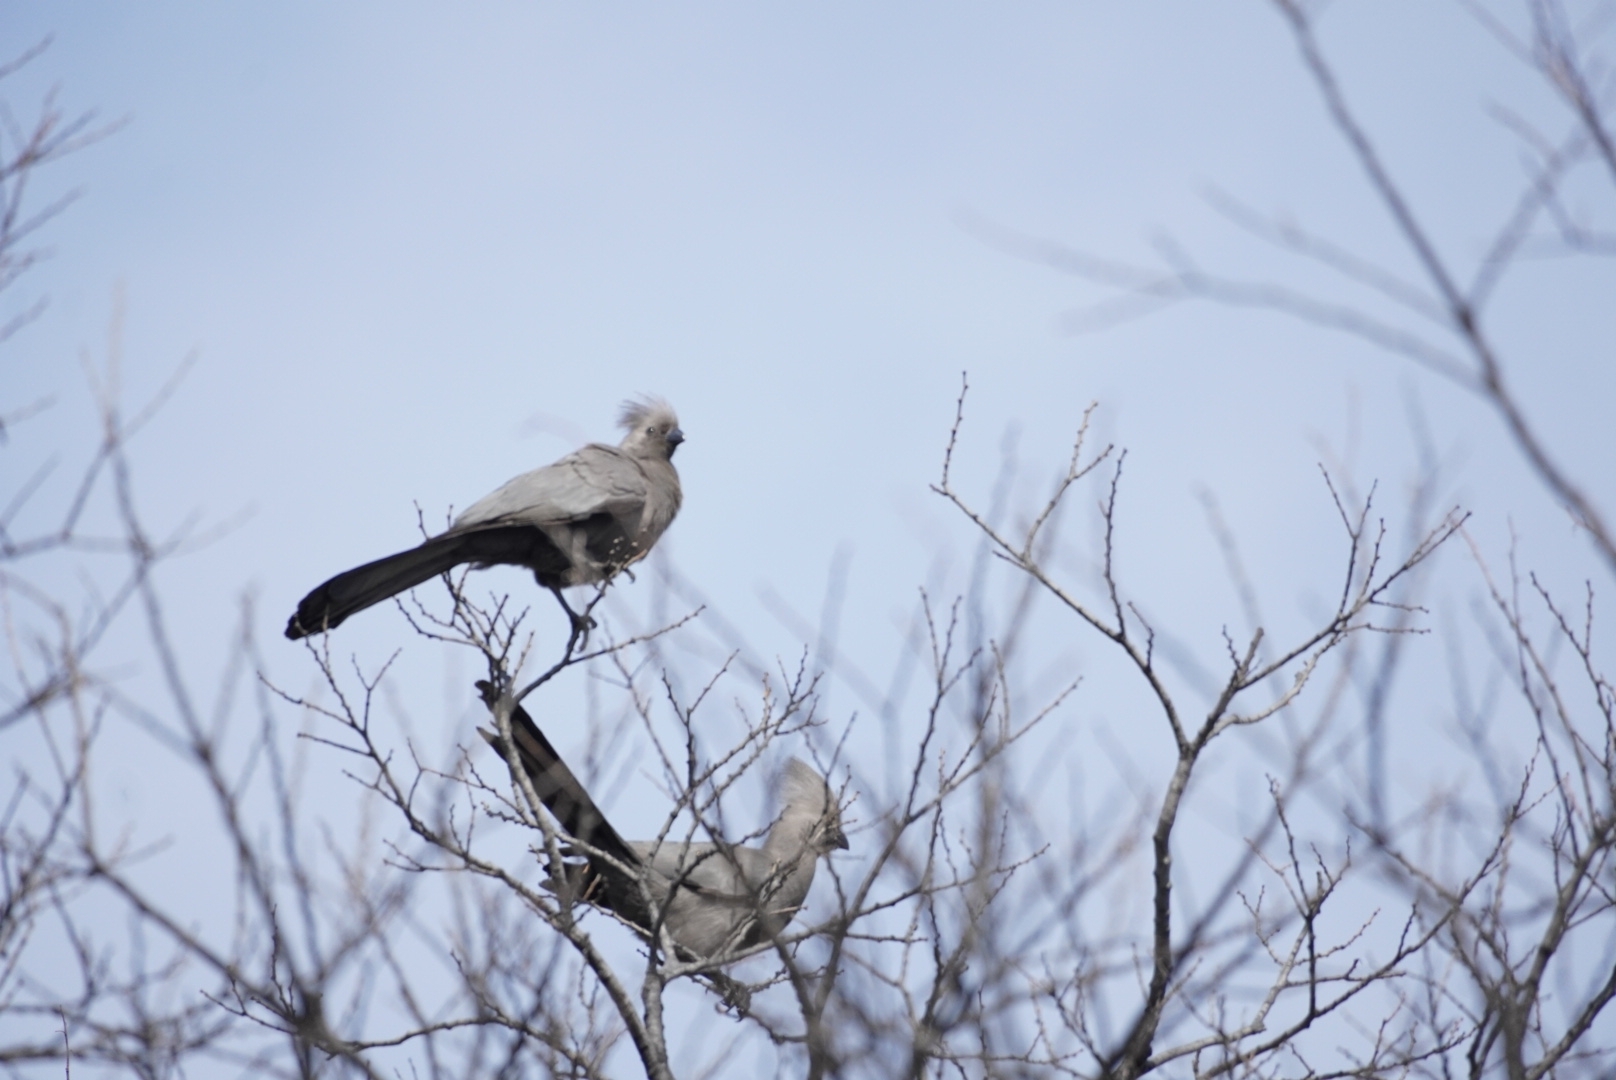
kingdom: Animalia
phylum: Chordata
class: Aves
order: Musophagiformes
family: Musophagidae
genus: Corythaixoides
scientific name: Corythaixoides concolor
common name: Grey go-away-bird
